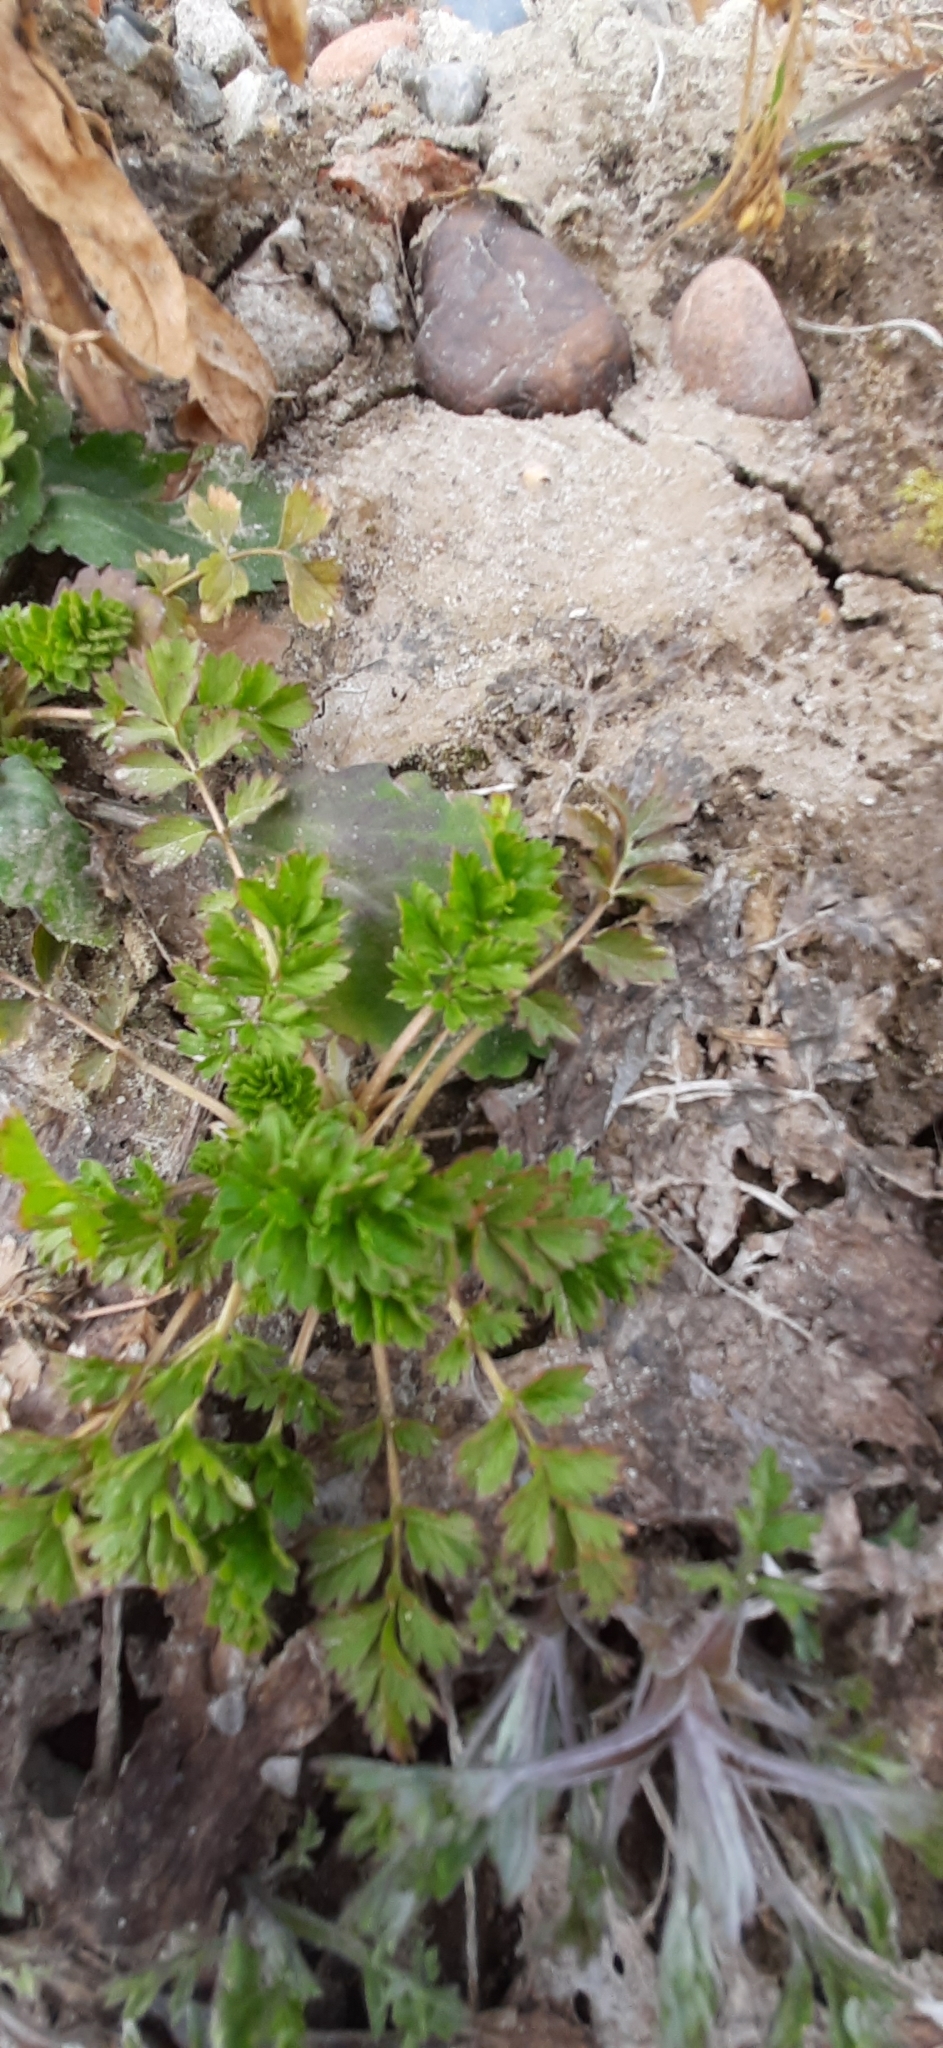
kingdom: Plantae
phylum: Tracheophyta
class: Magnoliopsida
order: Rosales
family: Rosaceae
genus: Potentilla
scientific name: Potentilla supina
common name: Prostrate cinquefoil
